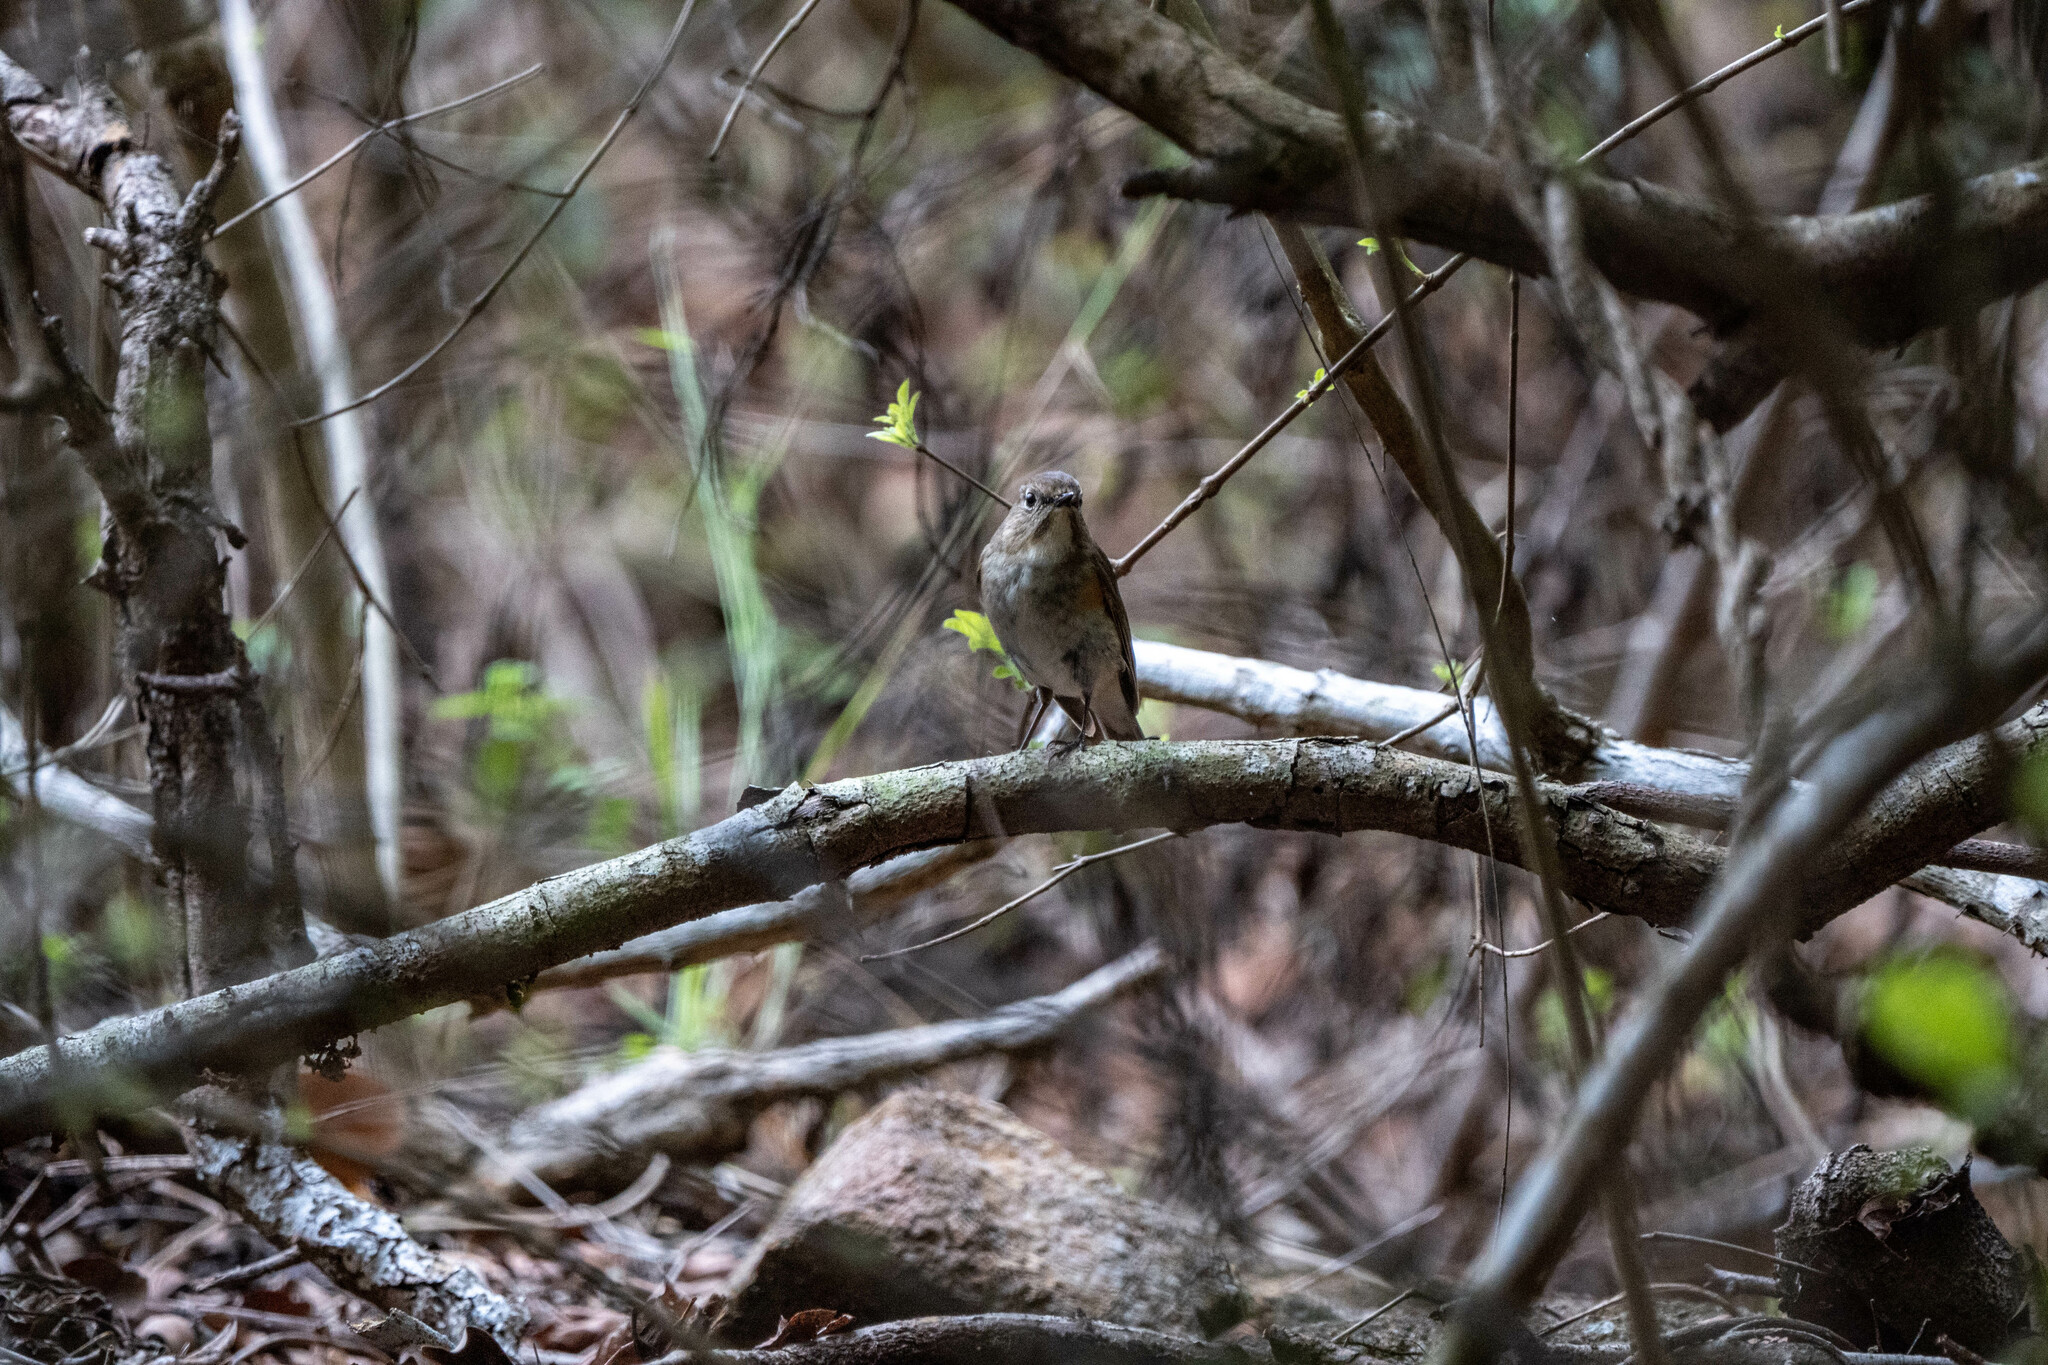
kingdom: Animalia
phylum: Chordata
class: Aves
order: Passeriformes
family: Muscicapidae
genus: Tarsiger
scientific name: Tarsiger cyanurus
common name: Red-flanked bluetail
